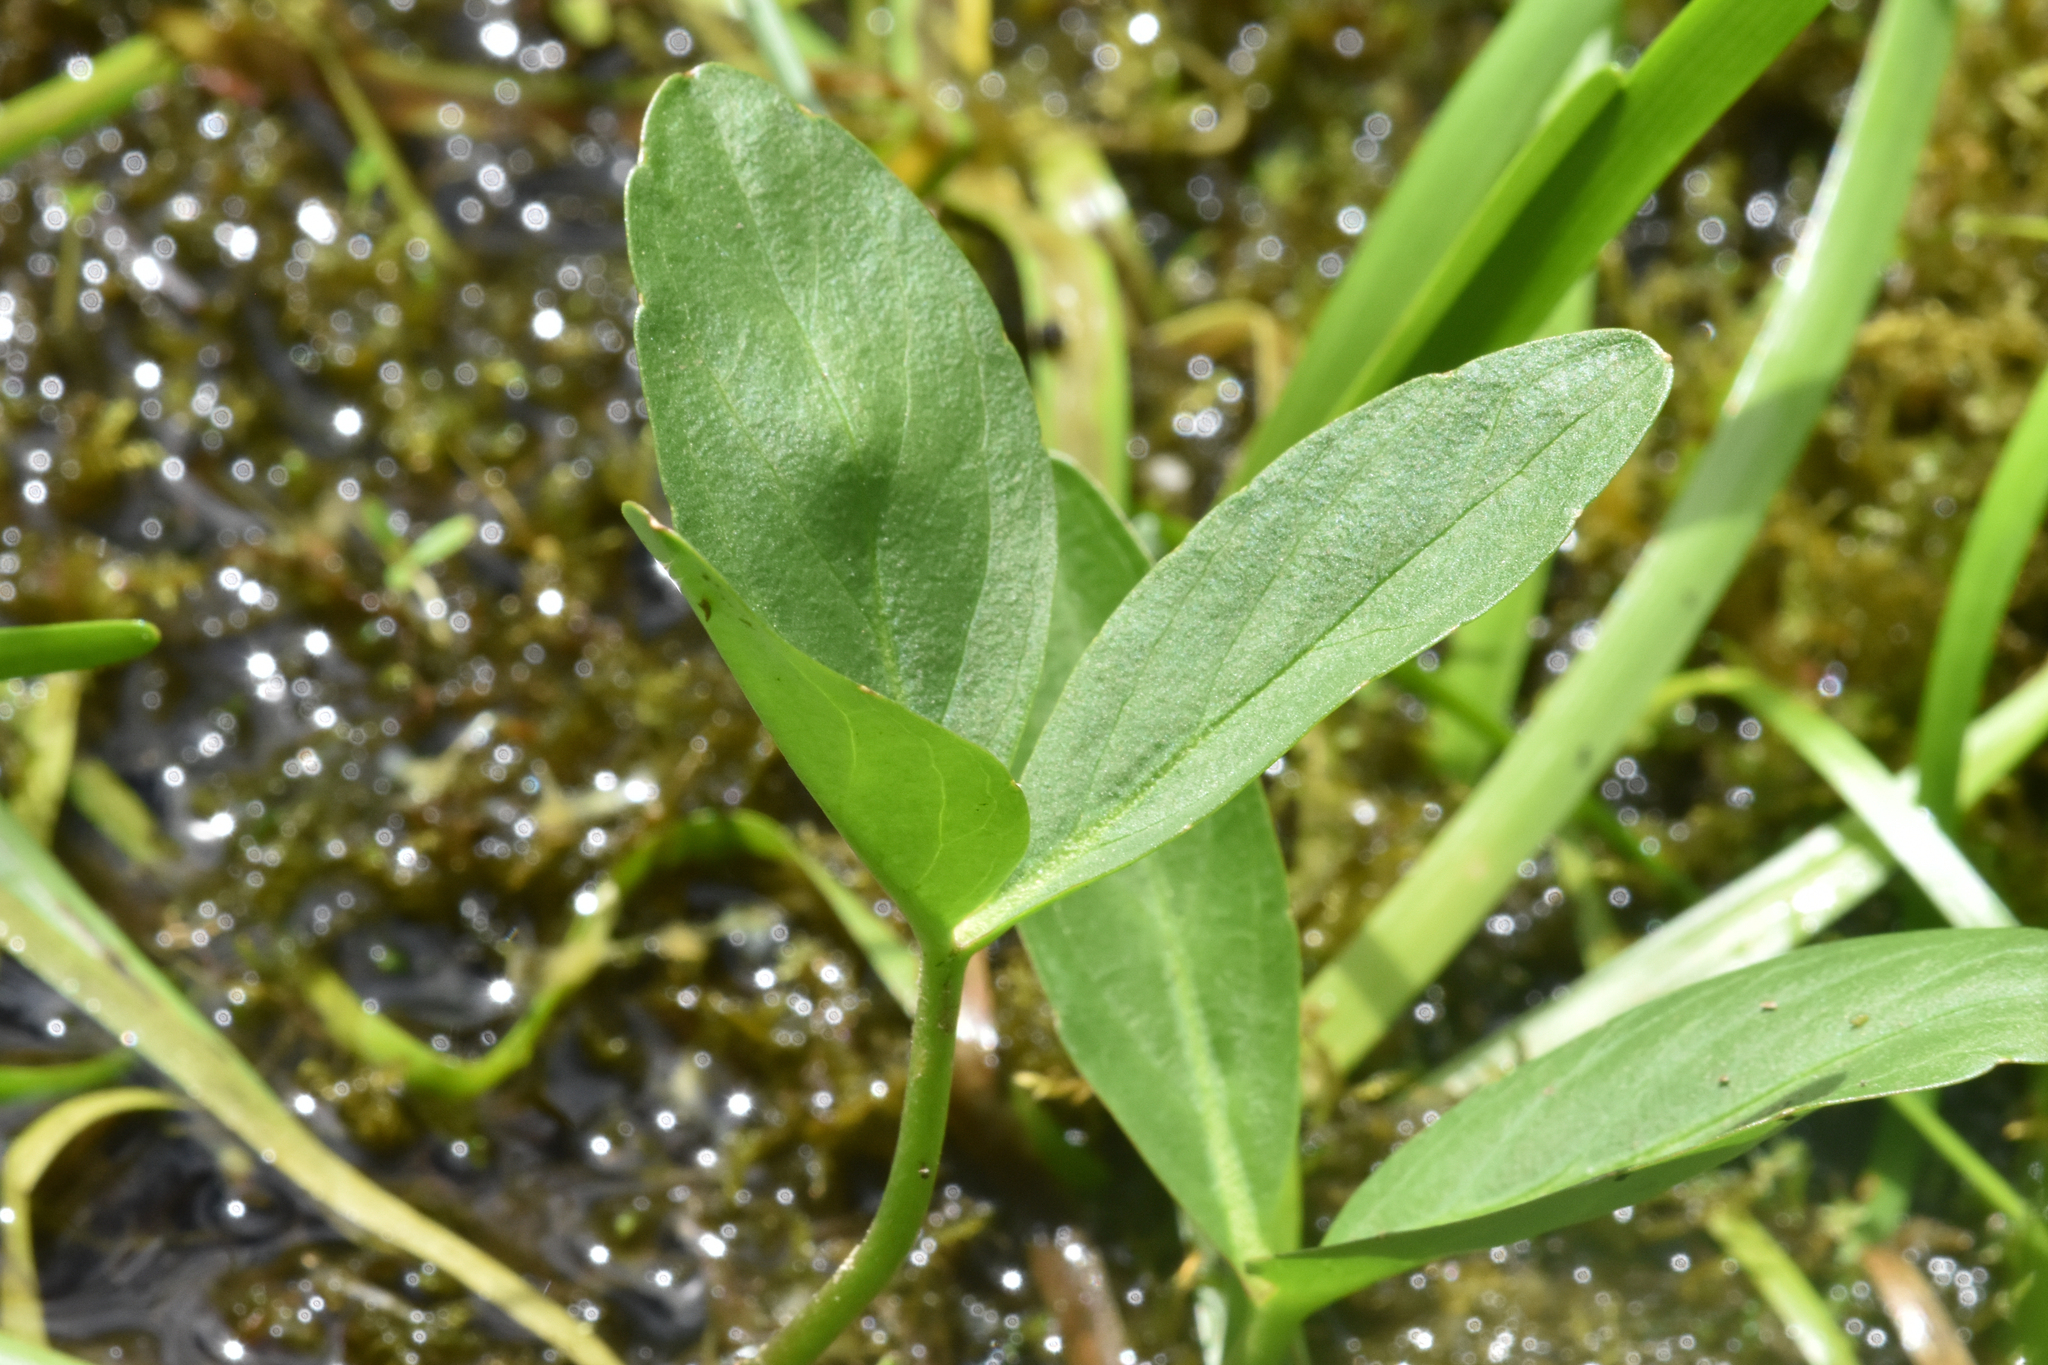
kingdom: Plantae
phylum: Tracheophyta
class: Magnoliopsida
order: Asterales
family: Menyanthaceae
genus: Menyanthes
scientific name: Menyanthes trifoliata
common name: Bogbean
